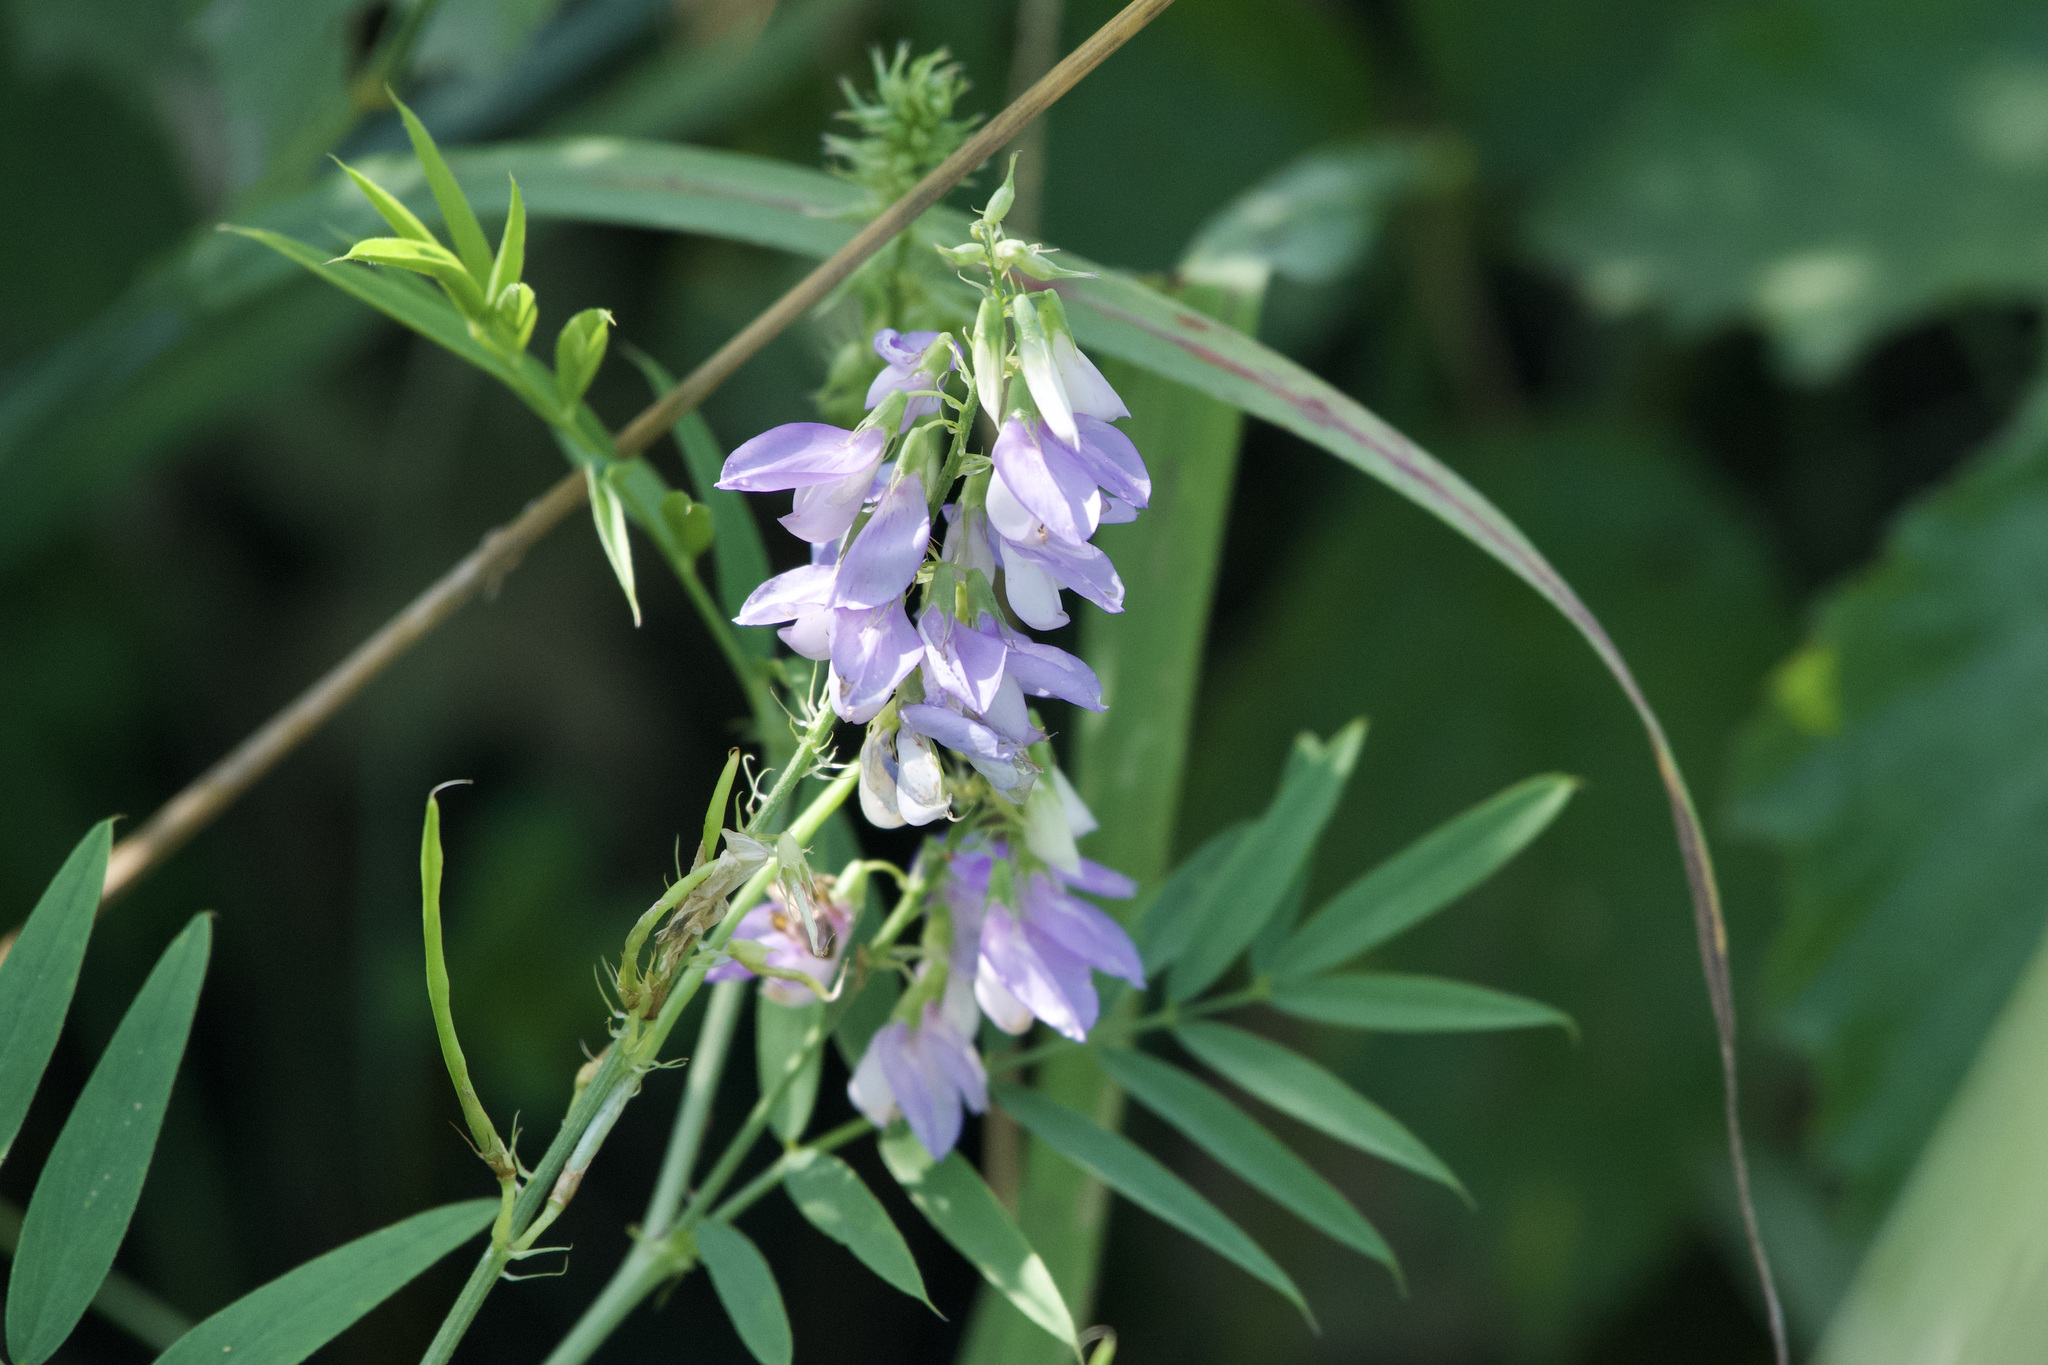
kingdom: Plantae
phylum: Tracheophyta
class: Magnoliopsida
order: Fabales
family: Fabaceae
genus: Galega
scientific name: Galega officinalis
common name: Goat's-rue
